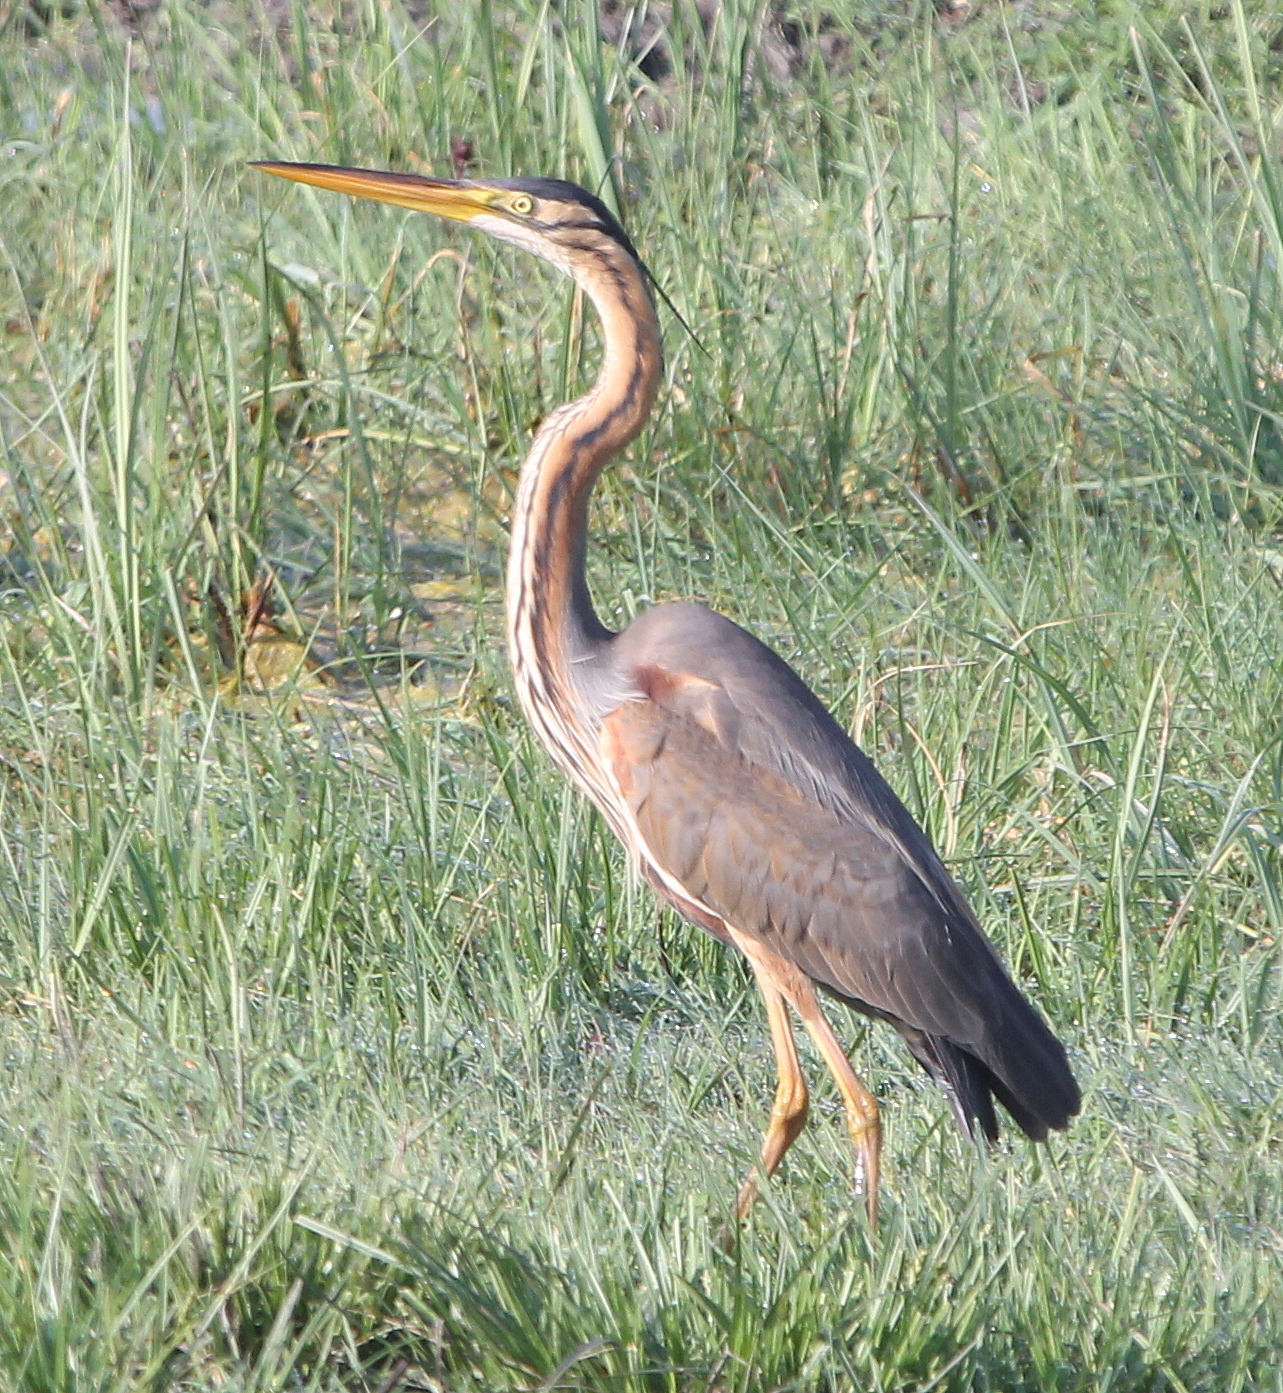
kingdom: Animalia
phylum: Chordata
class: Aves
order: Pelecaniformes
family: Ardeidae
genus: Ardea
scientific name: Ardea purpurea
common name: Purple heron
